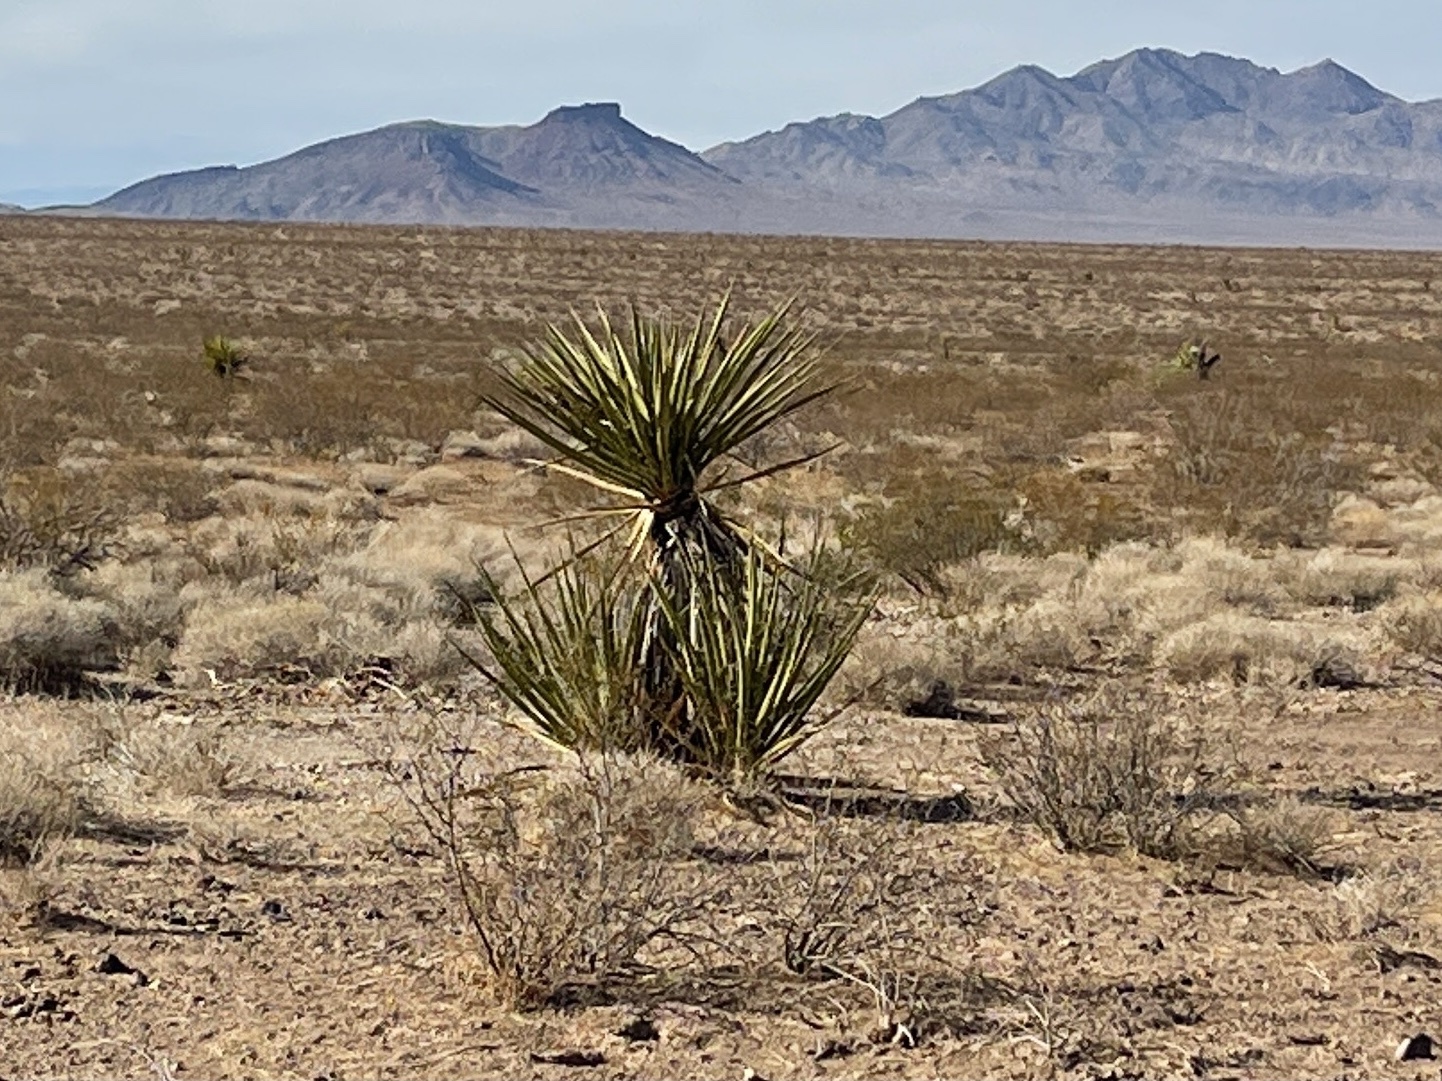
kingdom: Plantae
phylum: Tracheophyta
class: Liliopsida
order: Asparagales
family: Asparagaceae
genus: Yucca
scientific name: Yucca schidigera
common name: Mojave yucca
